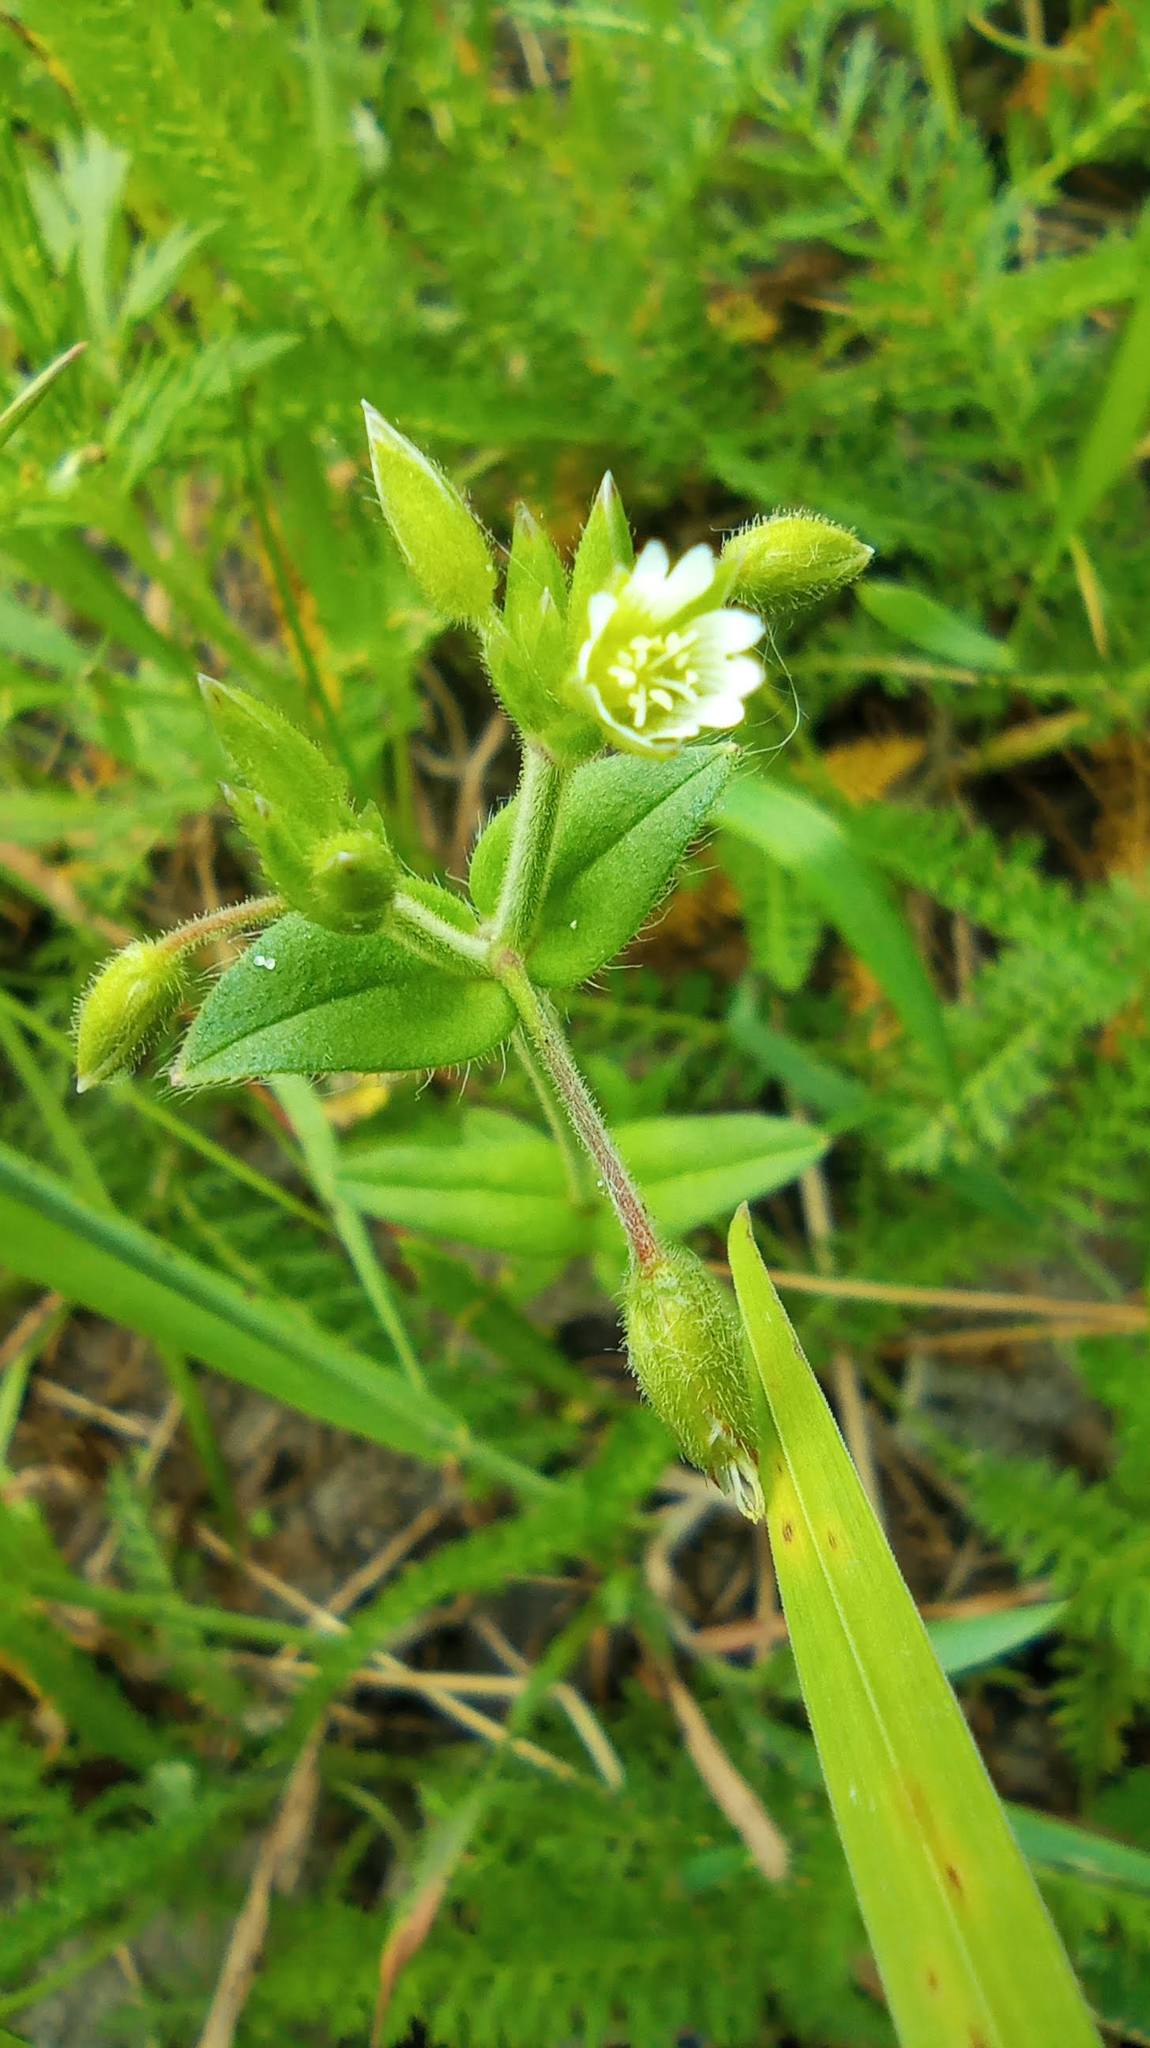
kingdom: Plantae
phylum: Tracheophyta
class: Magnoliopsida
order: Caryophyllales
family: Caryophyllaceae
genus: Cerastium
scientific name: Cerastium holosteoides
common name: Big chickweed
